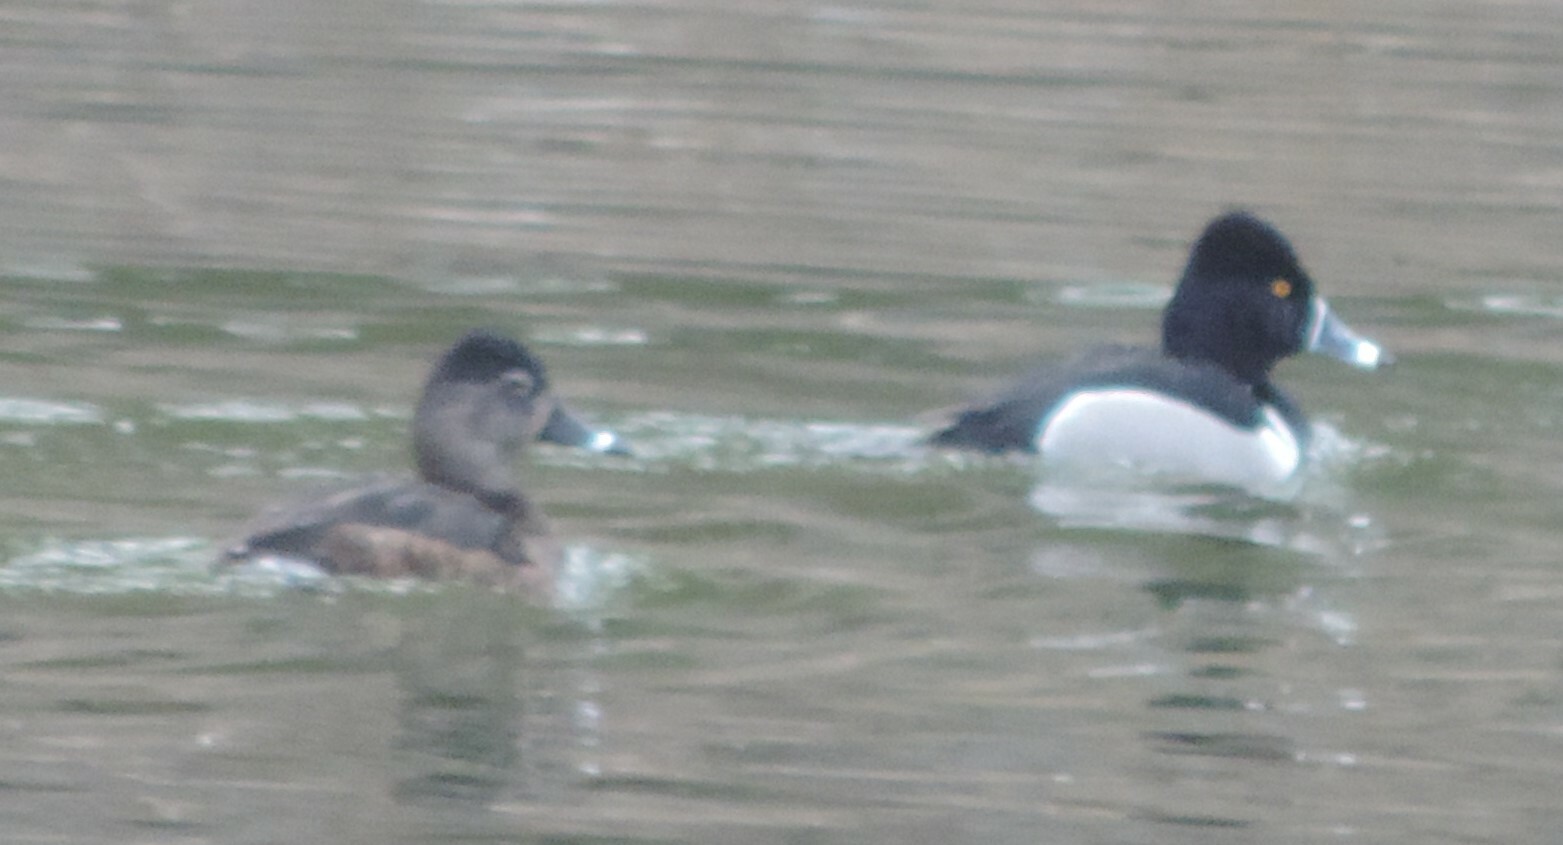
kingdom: Animalia
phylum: Chordata
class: Aves
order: Anseriformes
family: Anatidae
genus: Aythya
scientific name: Aythya collaris
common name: Ring-necked duck
